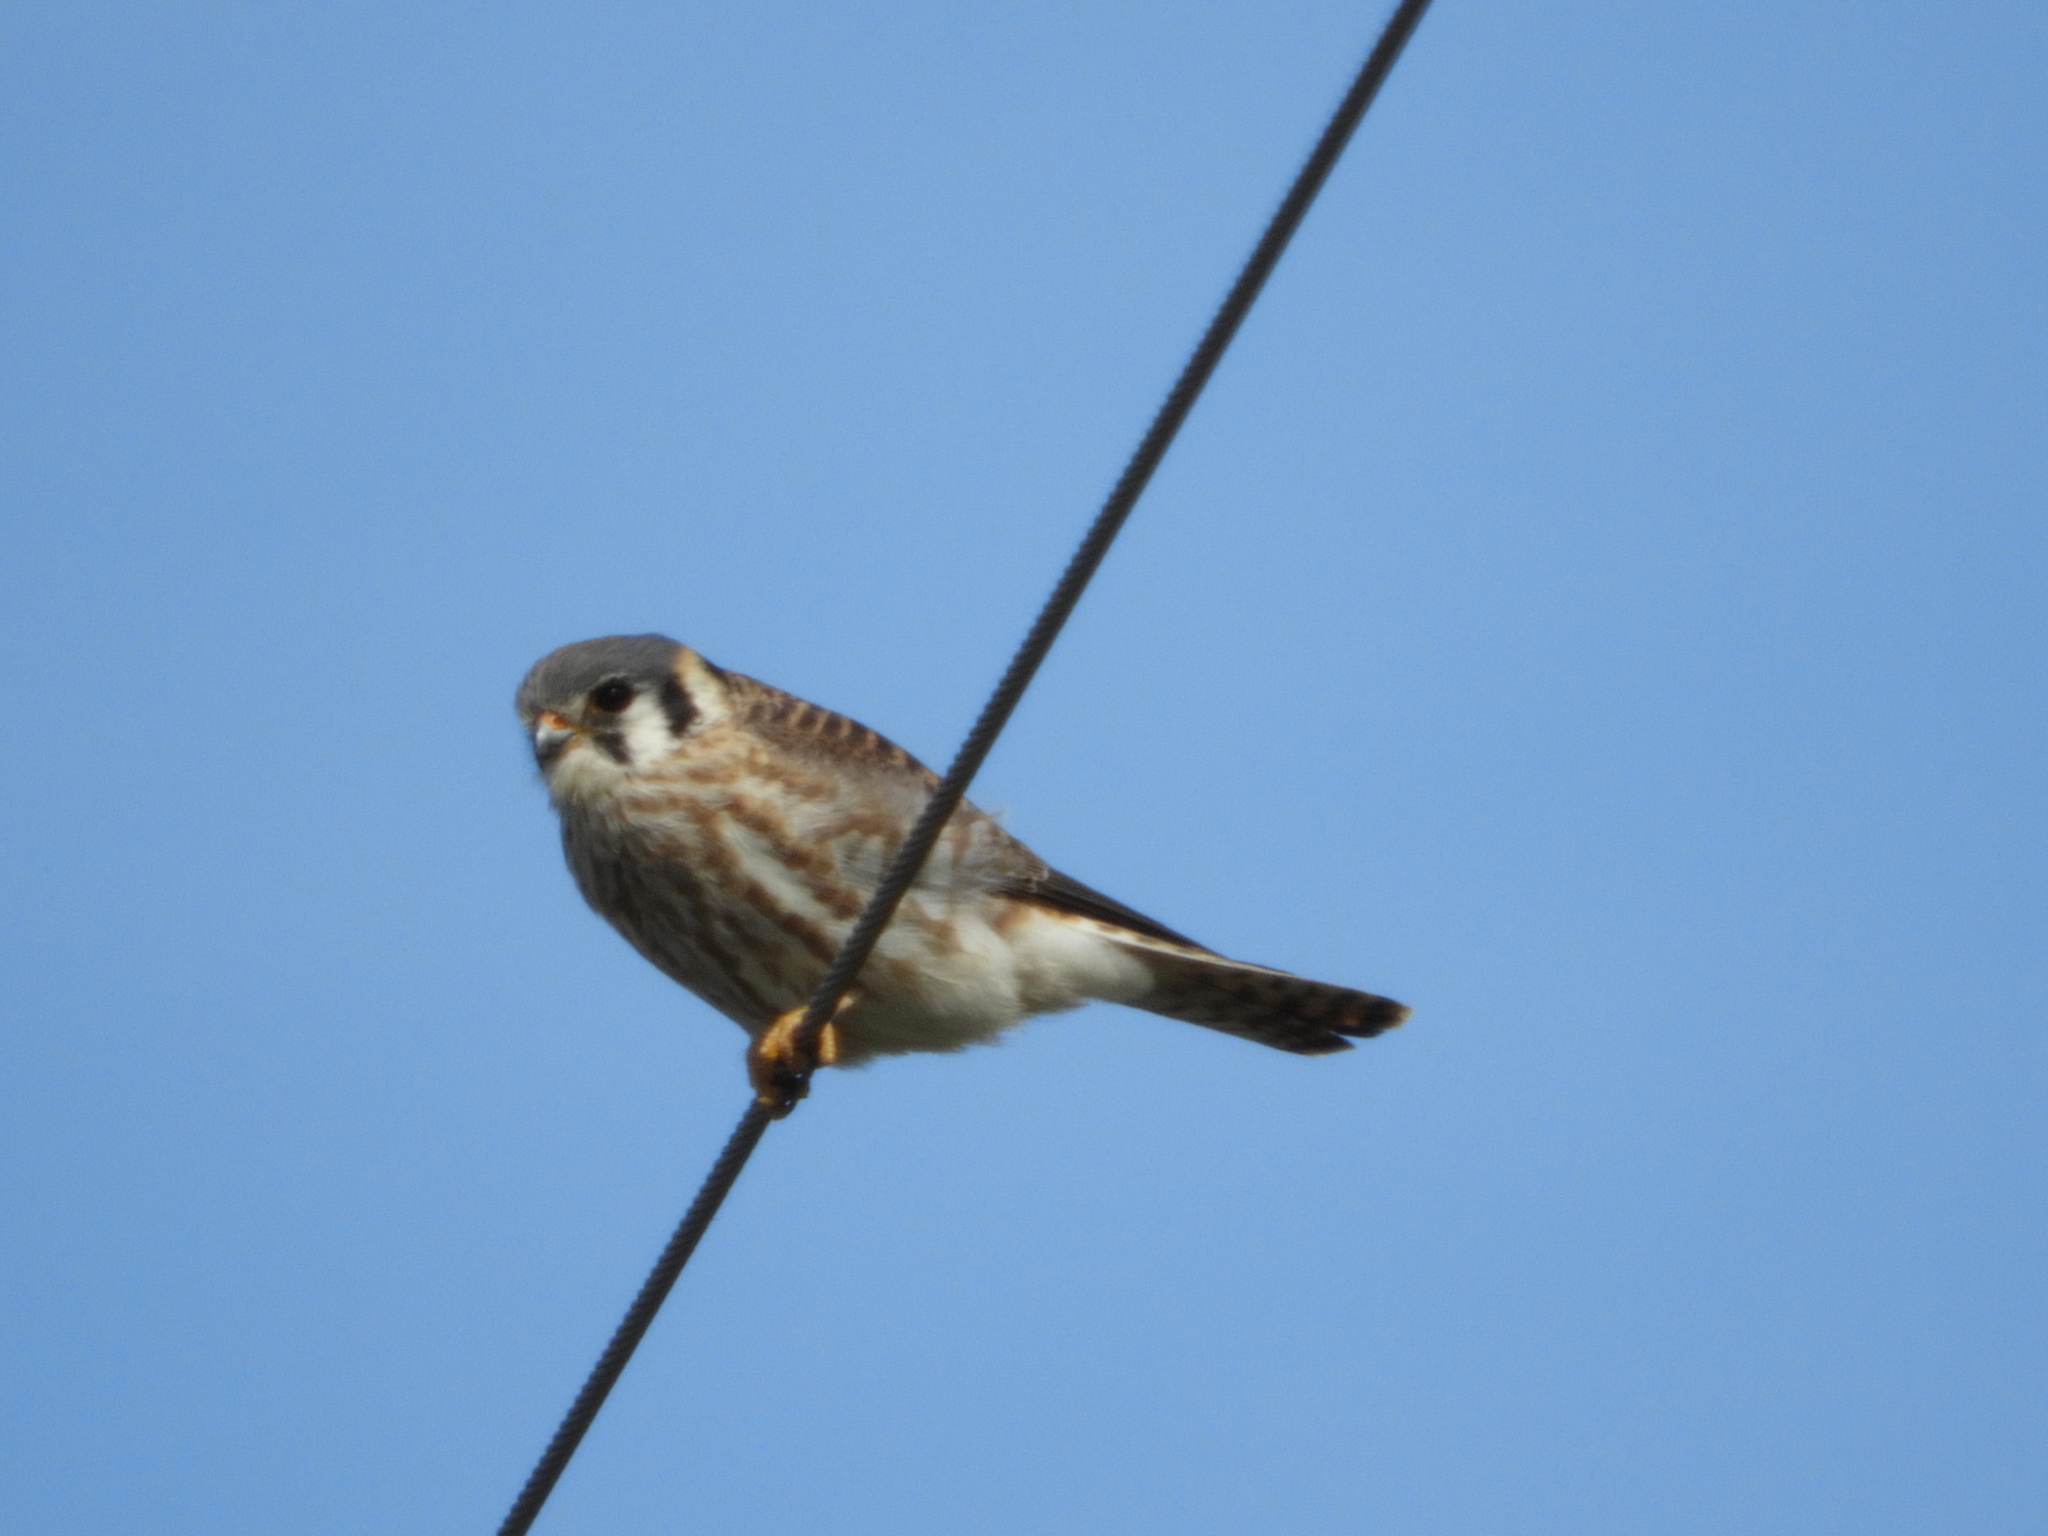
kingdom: Animalia
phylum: Chordata
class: Aves
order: Falconiformes
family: Falconidae
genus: Falco
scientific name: Falco sparverius
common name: American kestrel
